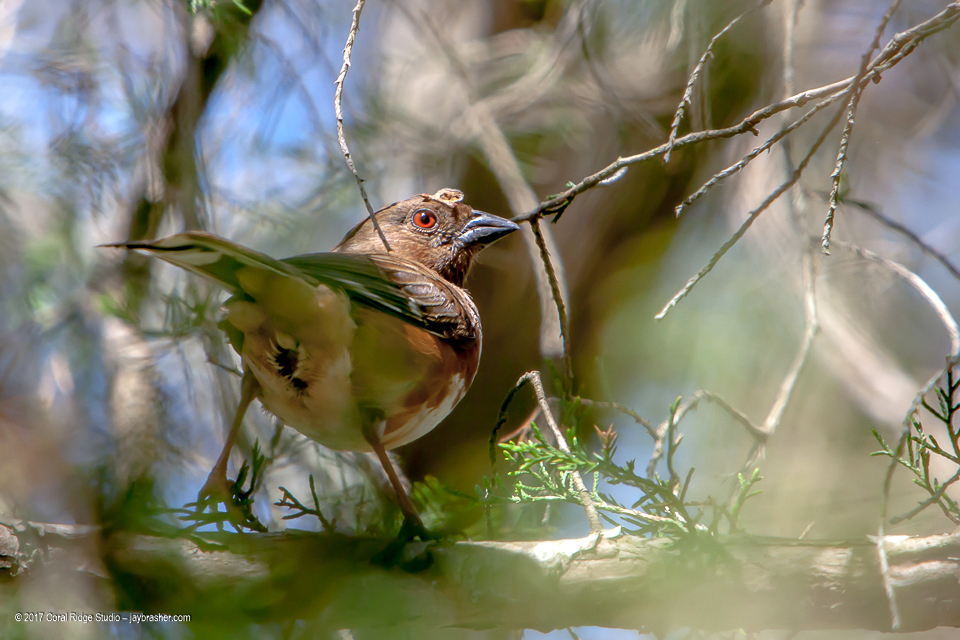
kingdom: Animalia
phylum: Chordata
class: Aves
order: Passeriformes
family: Passerellidae
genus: Pipilo
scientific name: Pipilo erythrophthalmus
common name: Eastern towhee
